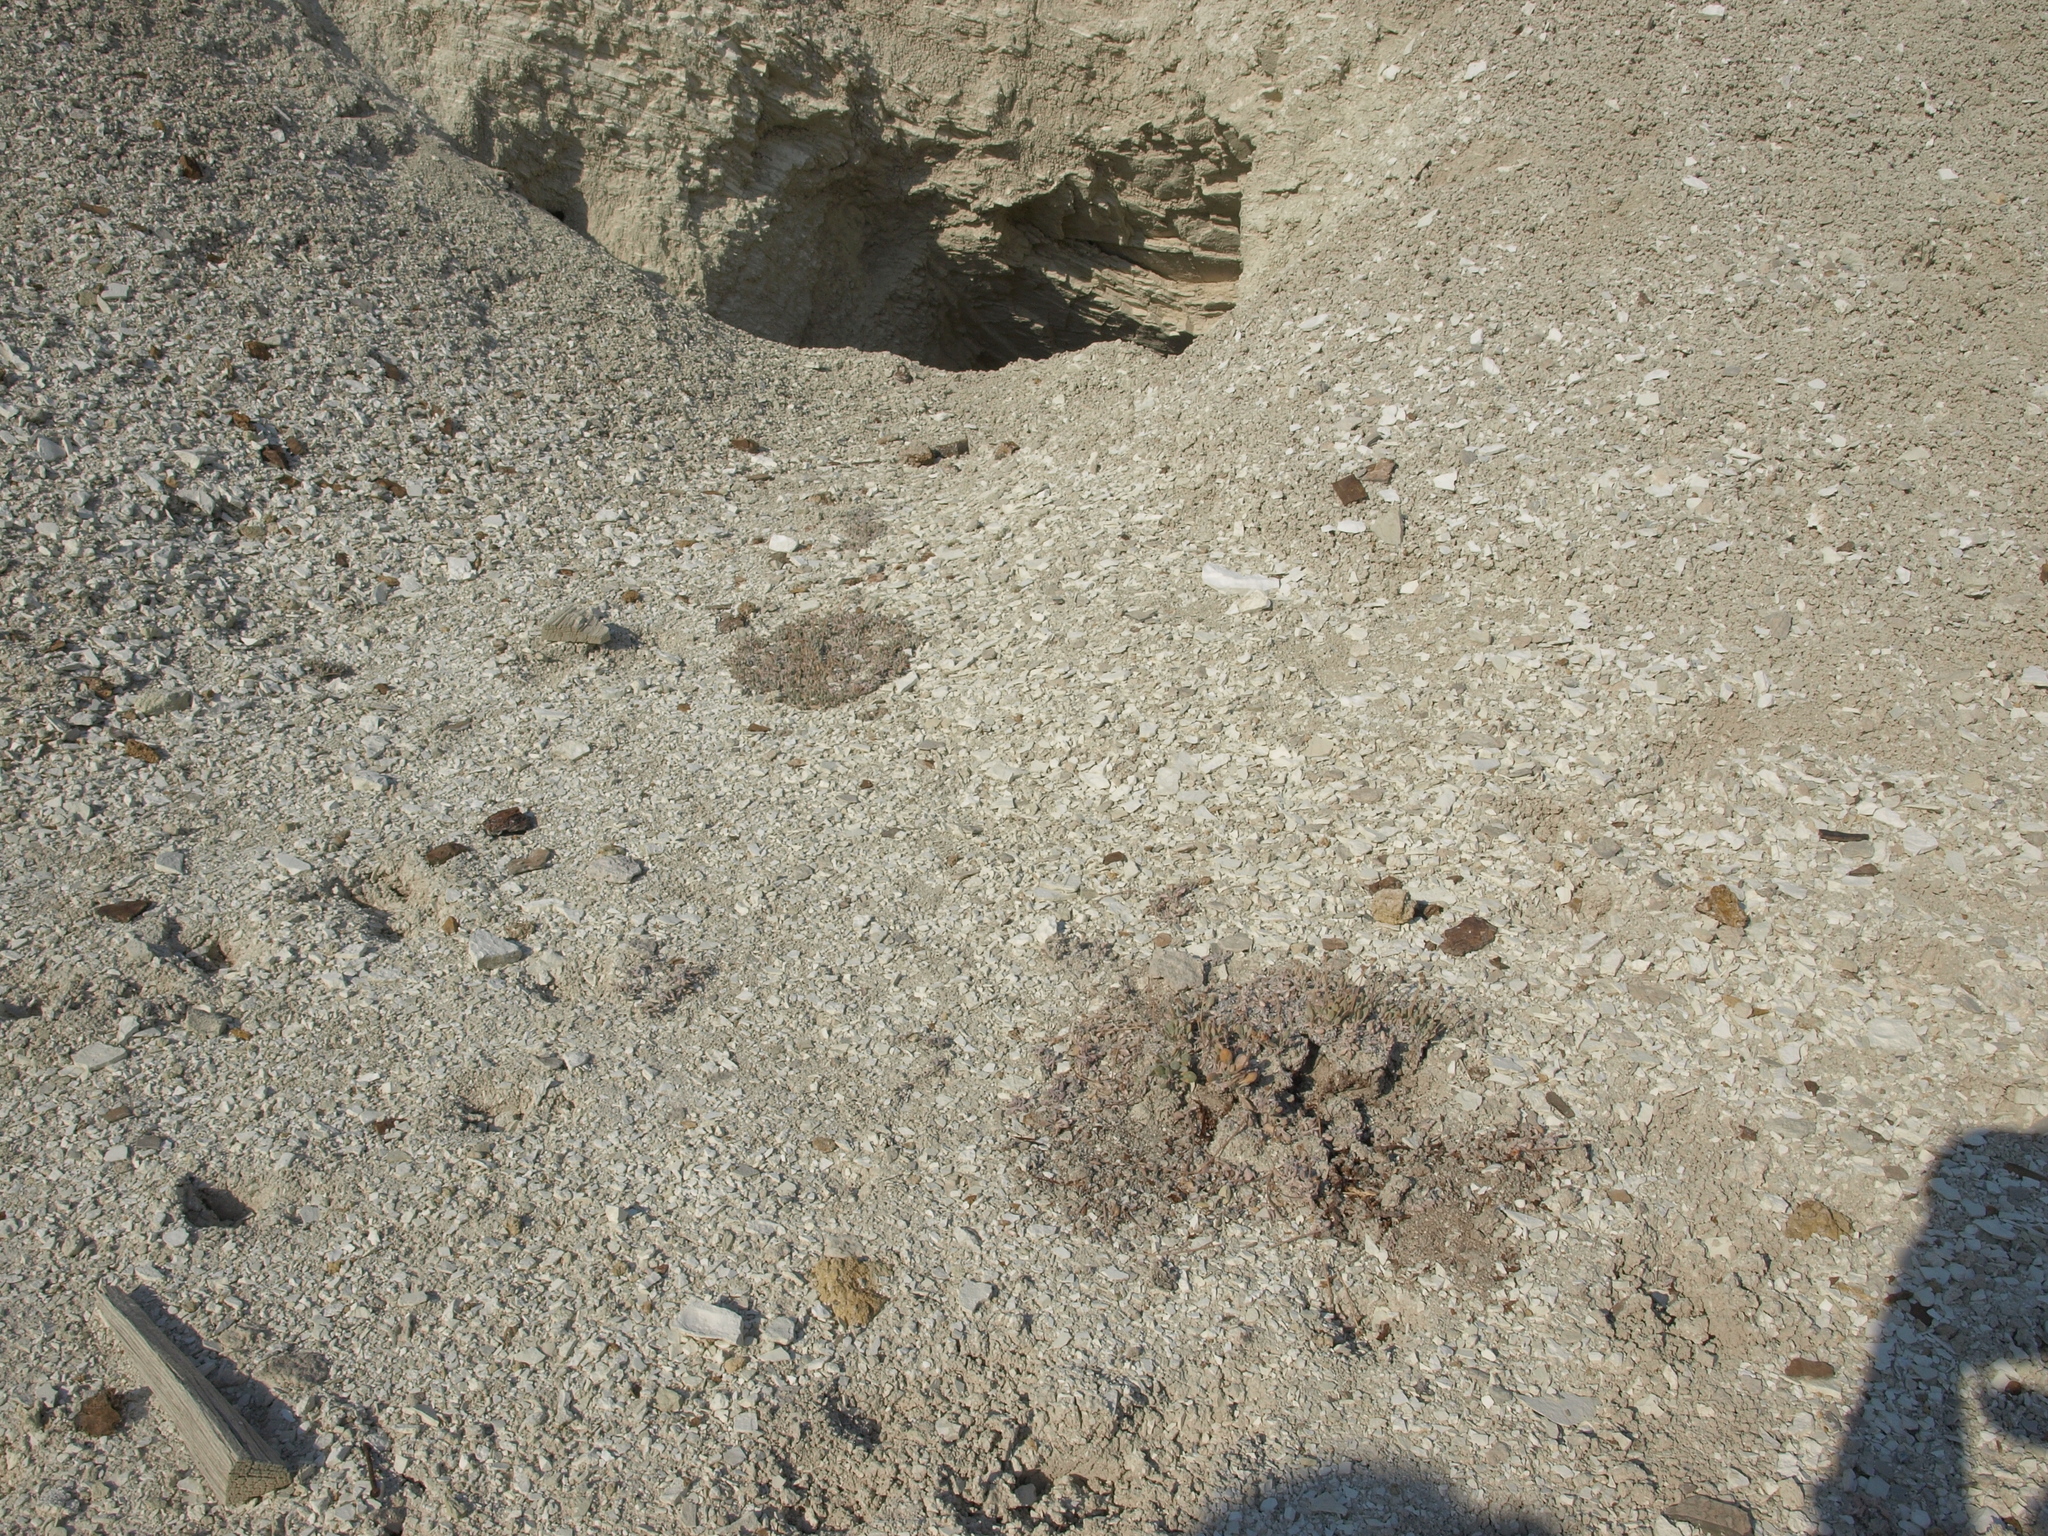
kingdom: Plantae
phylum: Tracheophyta
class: Magnoliopsida
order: Caryophyllales
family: Polygonaceae
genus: Eriogonum
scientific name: Eriogonum tiehmii
